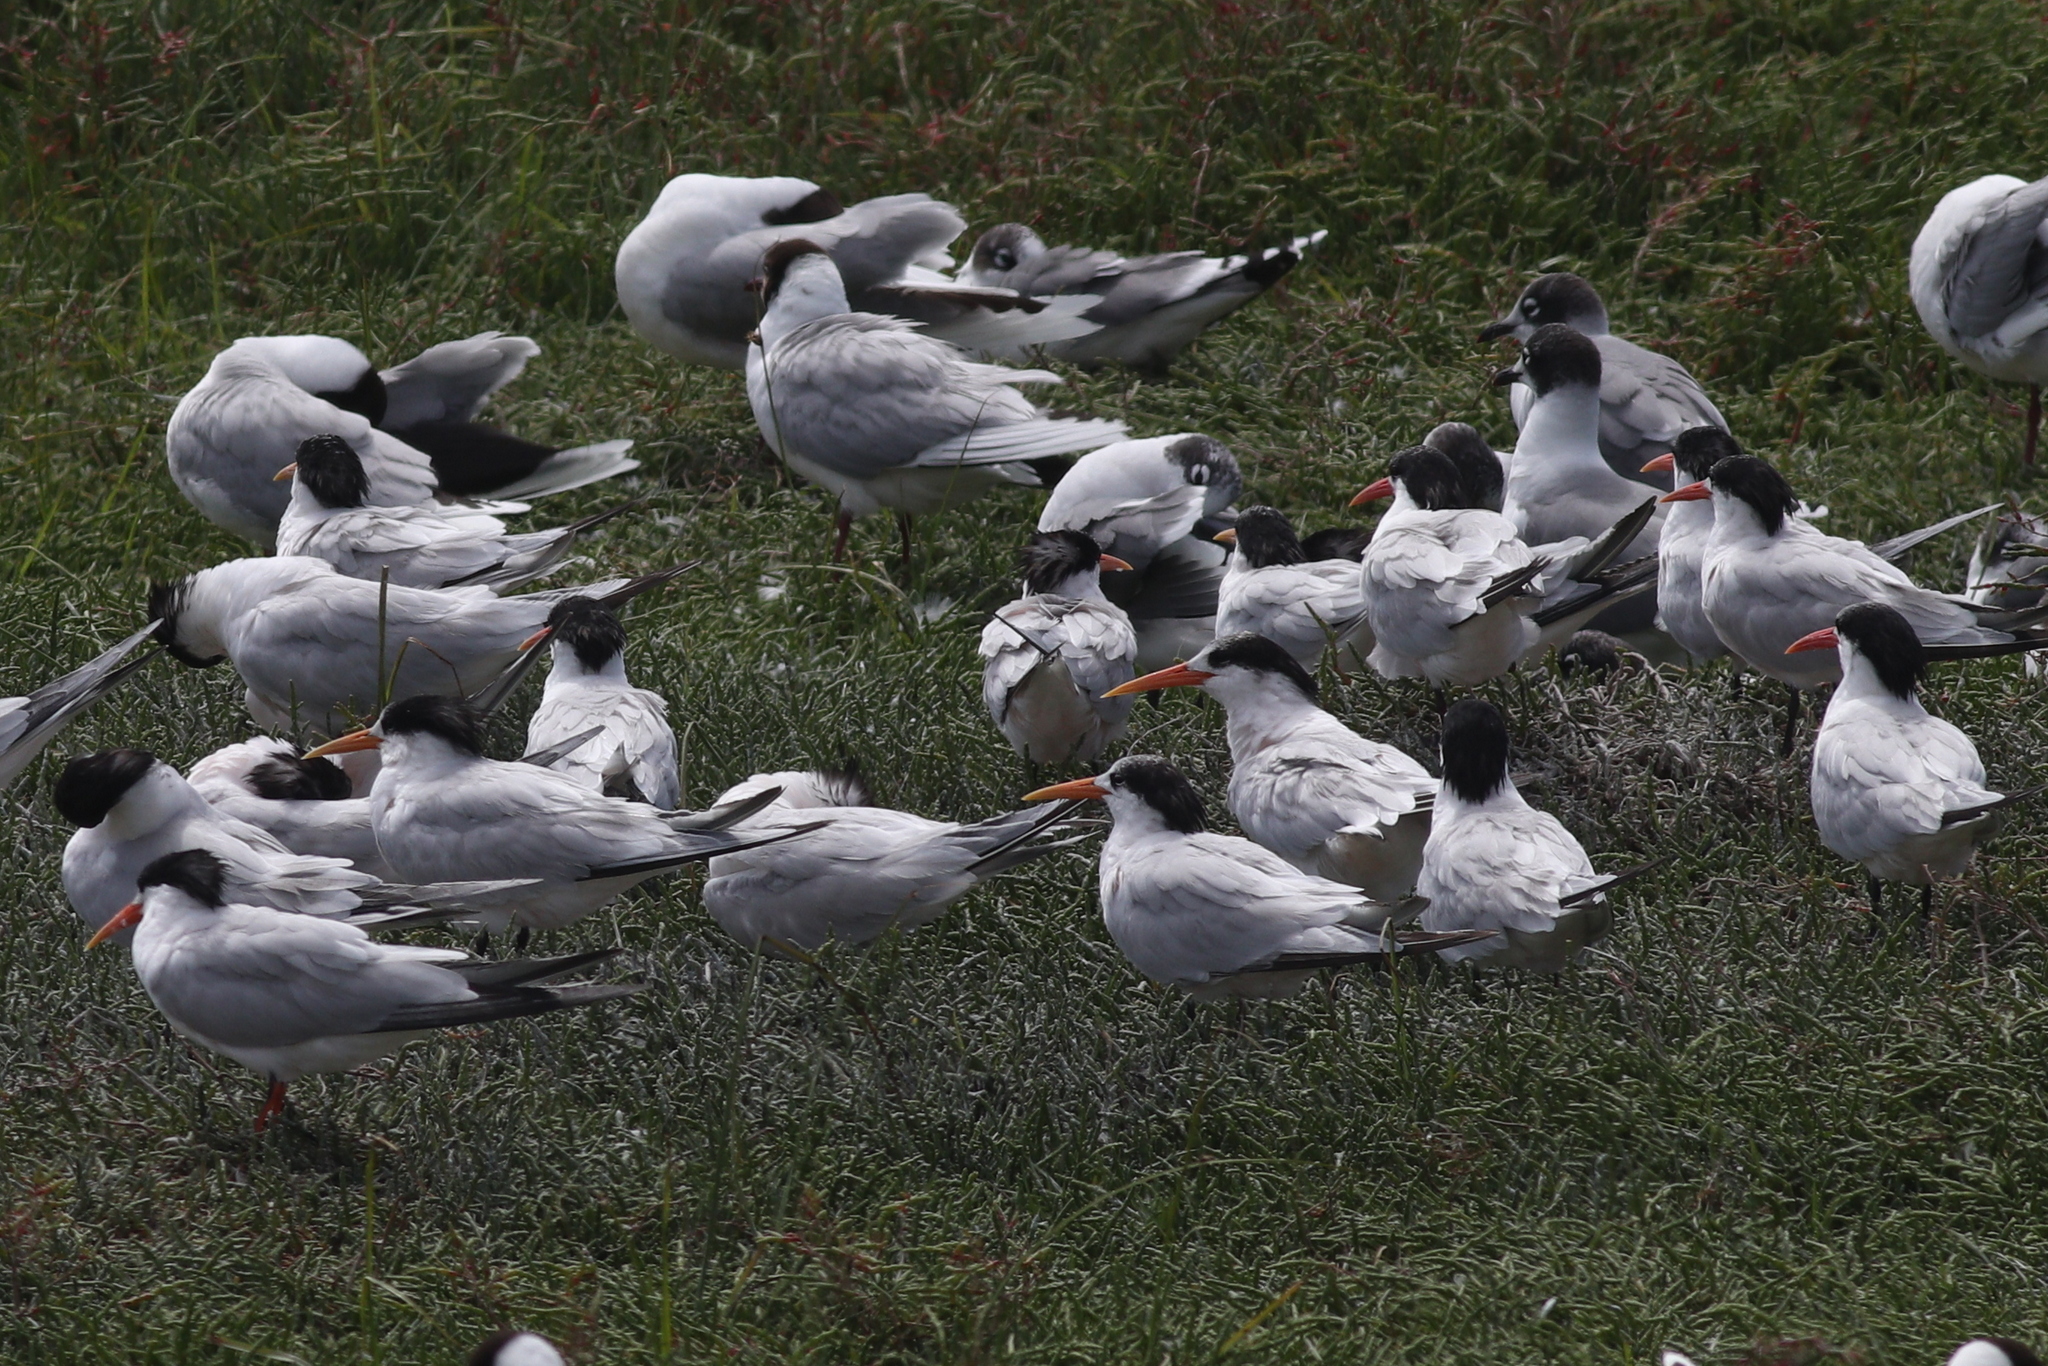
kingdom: Animalia
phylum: Chordata
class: Aves
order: Charadriiformes
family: Laridae
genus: Thalasseus
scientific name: Thalasseus elegans
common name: Elegant tern
